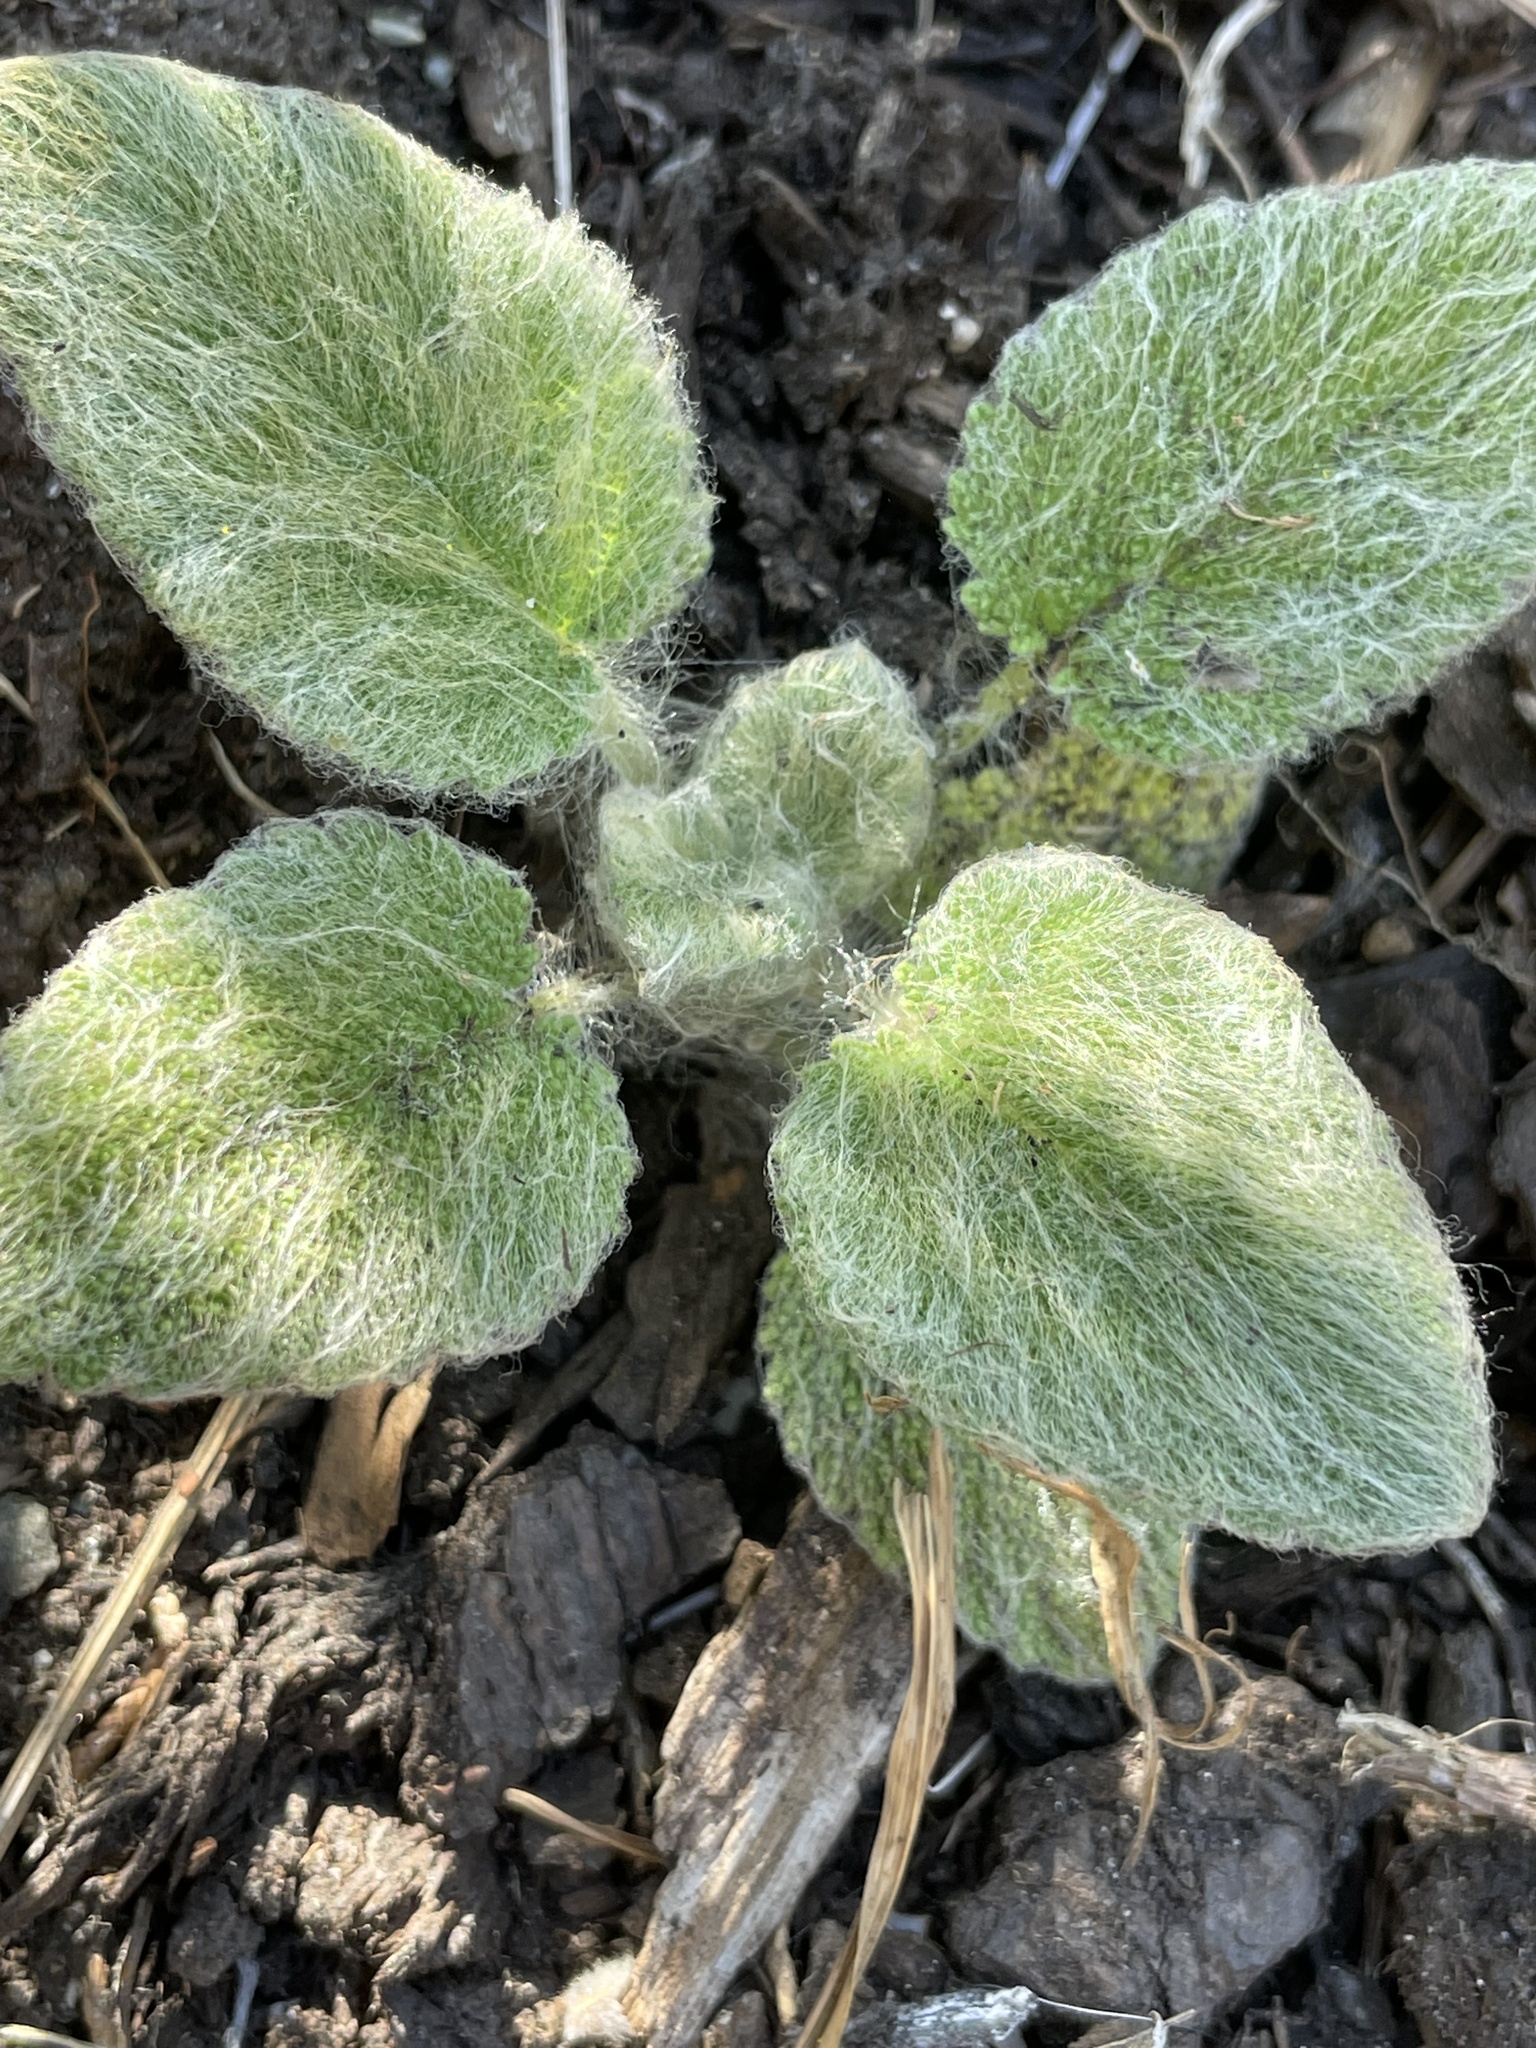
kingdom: Plantae
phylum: Tracheophyta
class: Magnoliopsida
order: Lamiales
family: Lamiaceae
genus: Salvia
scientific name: Salvia sclarea
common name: Clary
